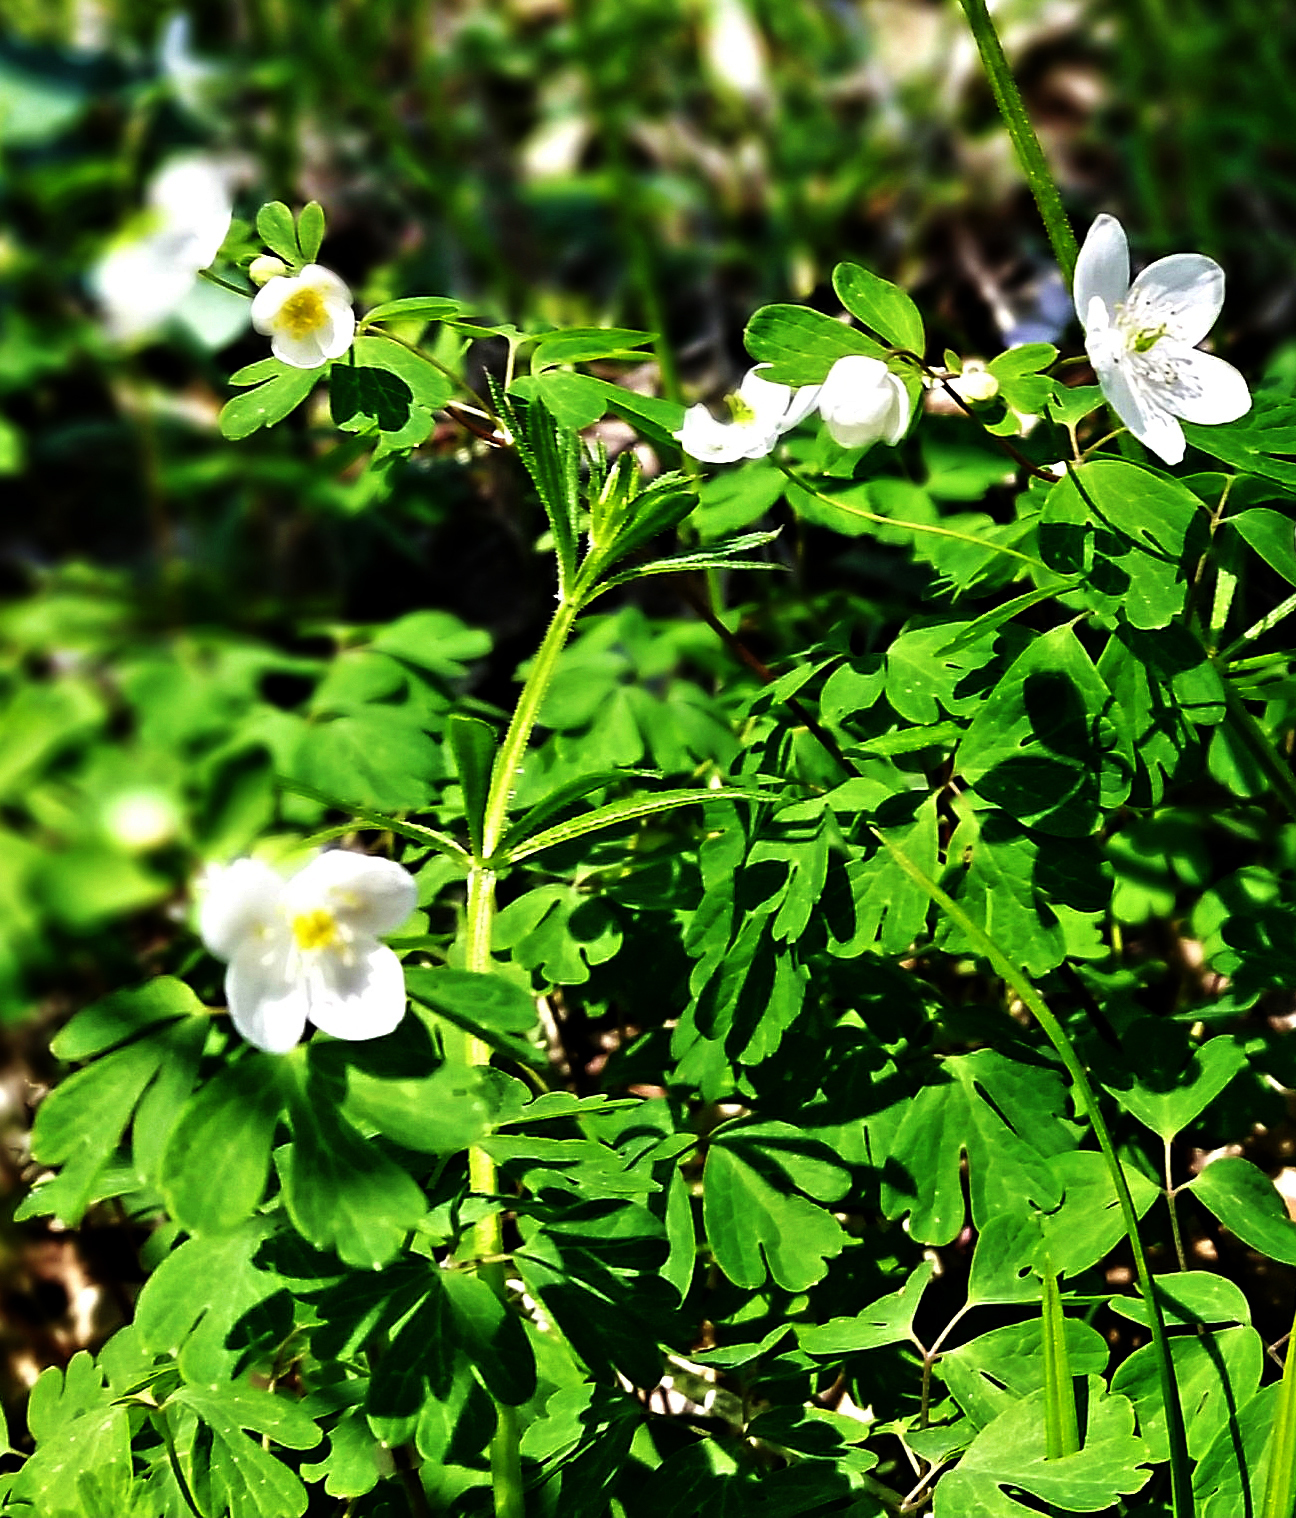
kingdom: Plantae
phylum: Tracheophyta
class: Magnoliopsida
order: Ranunculales
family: Ranunculaceae
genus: Enemion
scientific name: Enemion biternatum
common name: Eastern false rue-anemone
